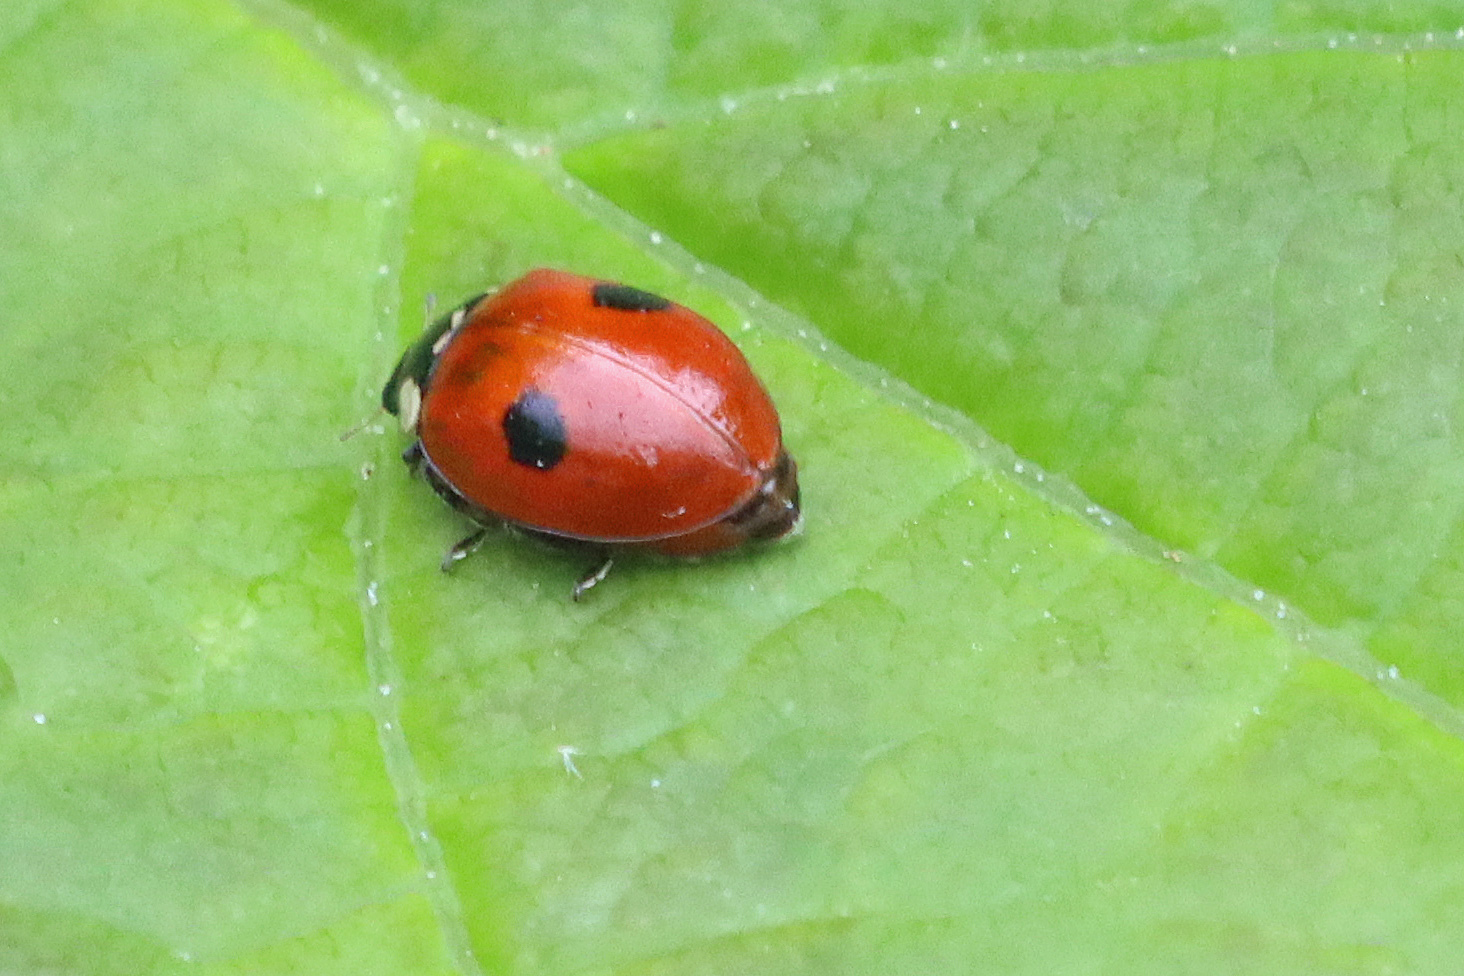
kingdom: Animalia
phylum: Arthropoda
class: Insecta
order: Coleoptera
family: Coccinellidae
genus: Adalia
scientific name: Adalia bipunctata
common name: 2-spot ladybird
